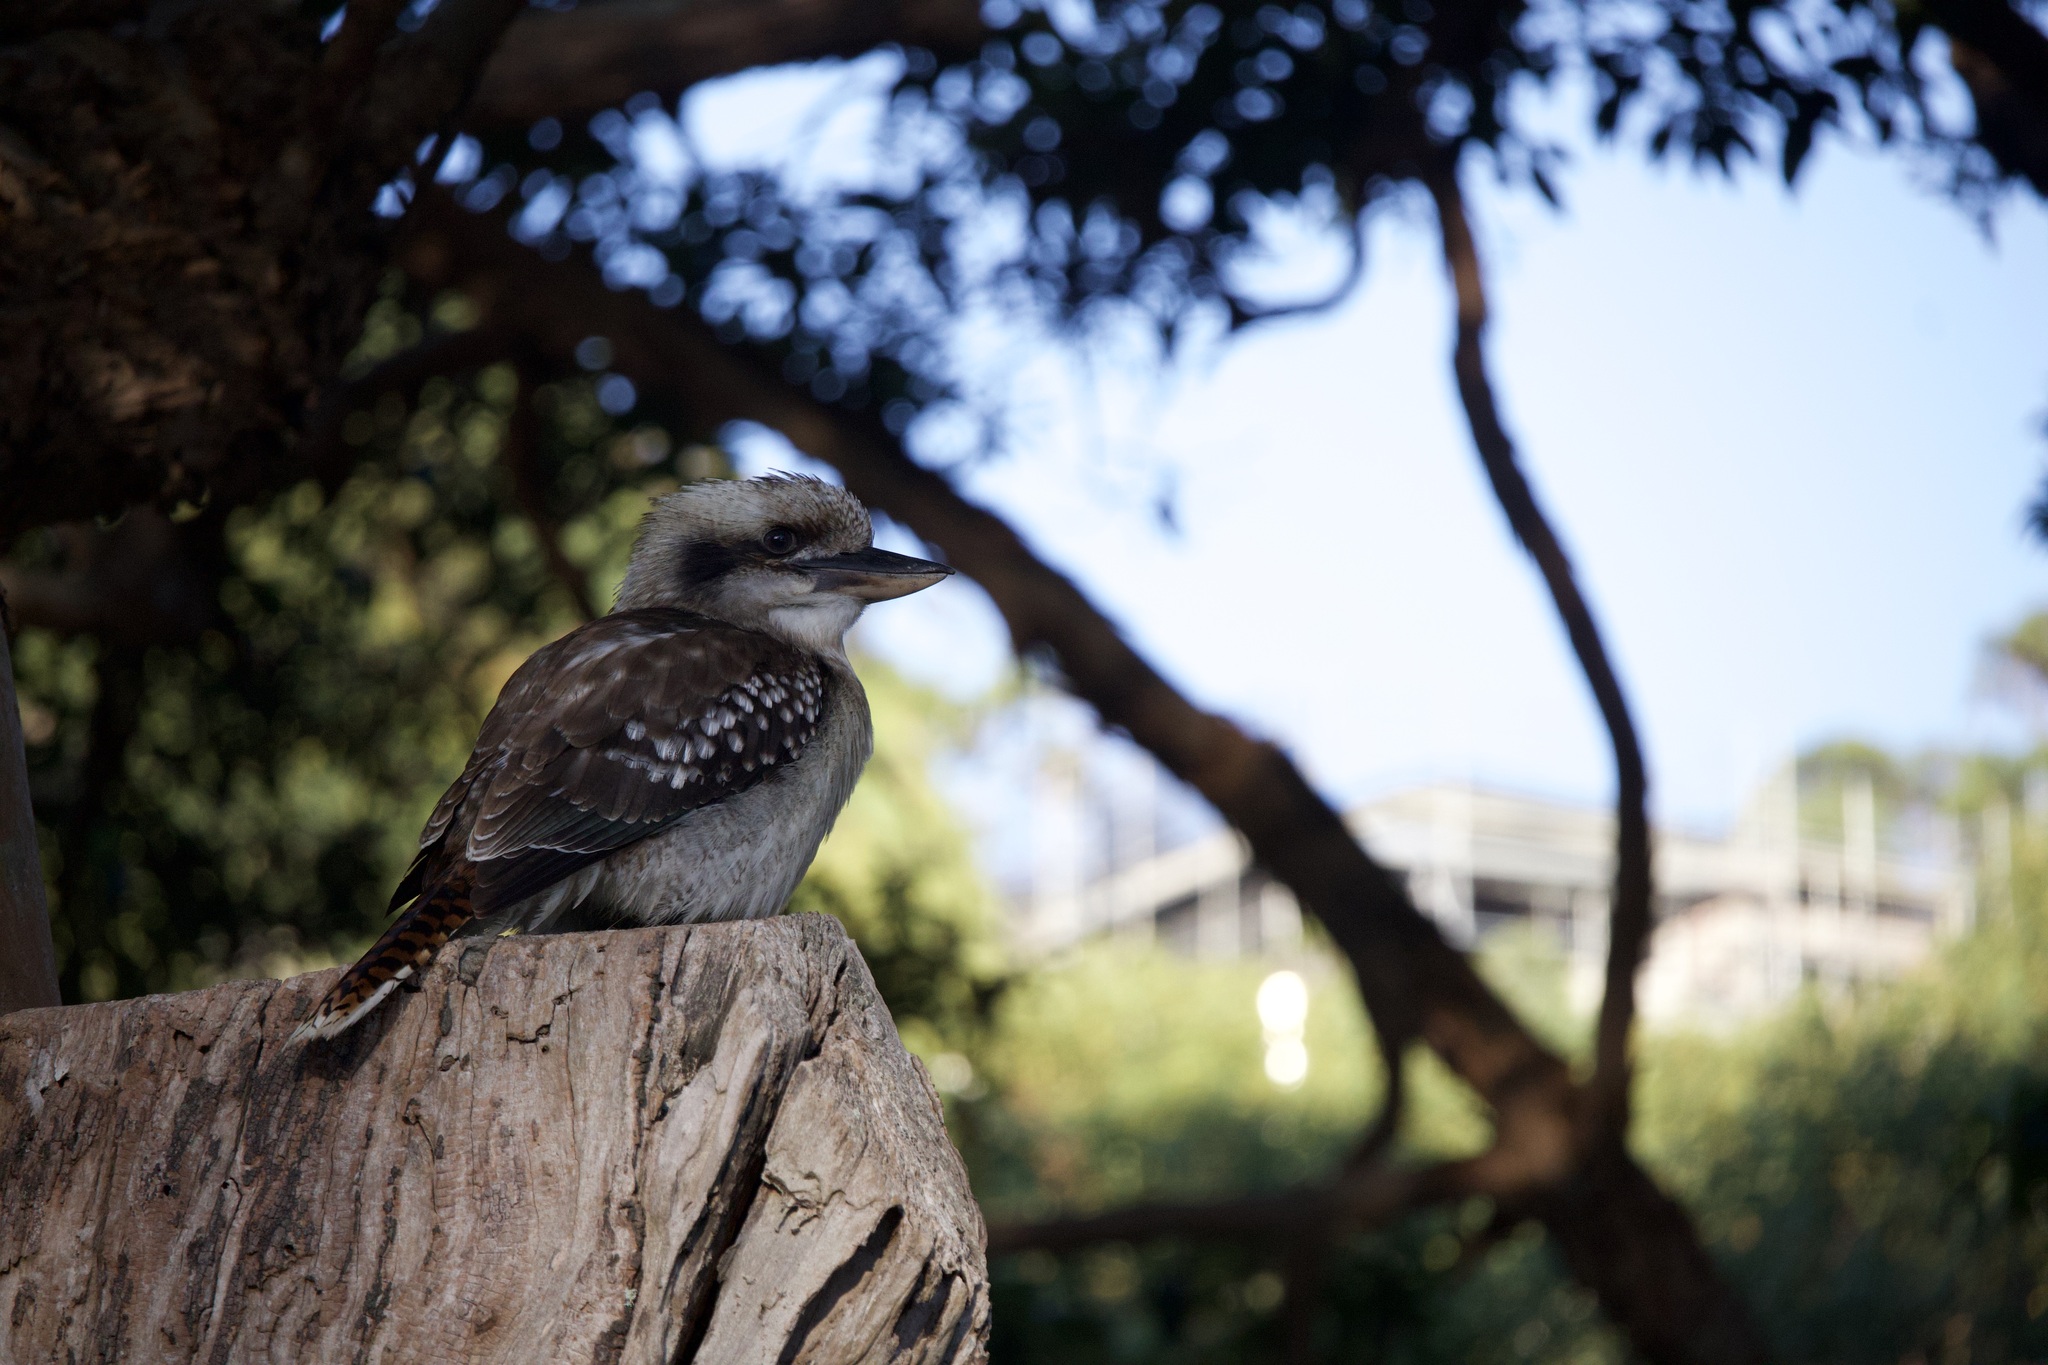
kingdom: Animalia
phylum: Chordata
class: Aves
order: Coraciiformes
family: Alcedinidae
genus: Dacelo
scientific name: Dacelo novaeguineae
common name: Laughing kookaburra
